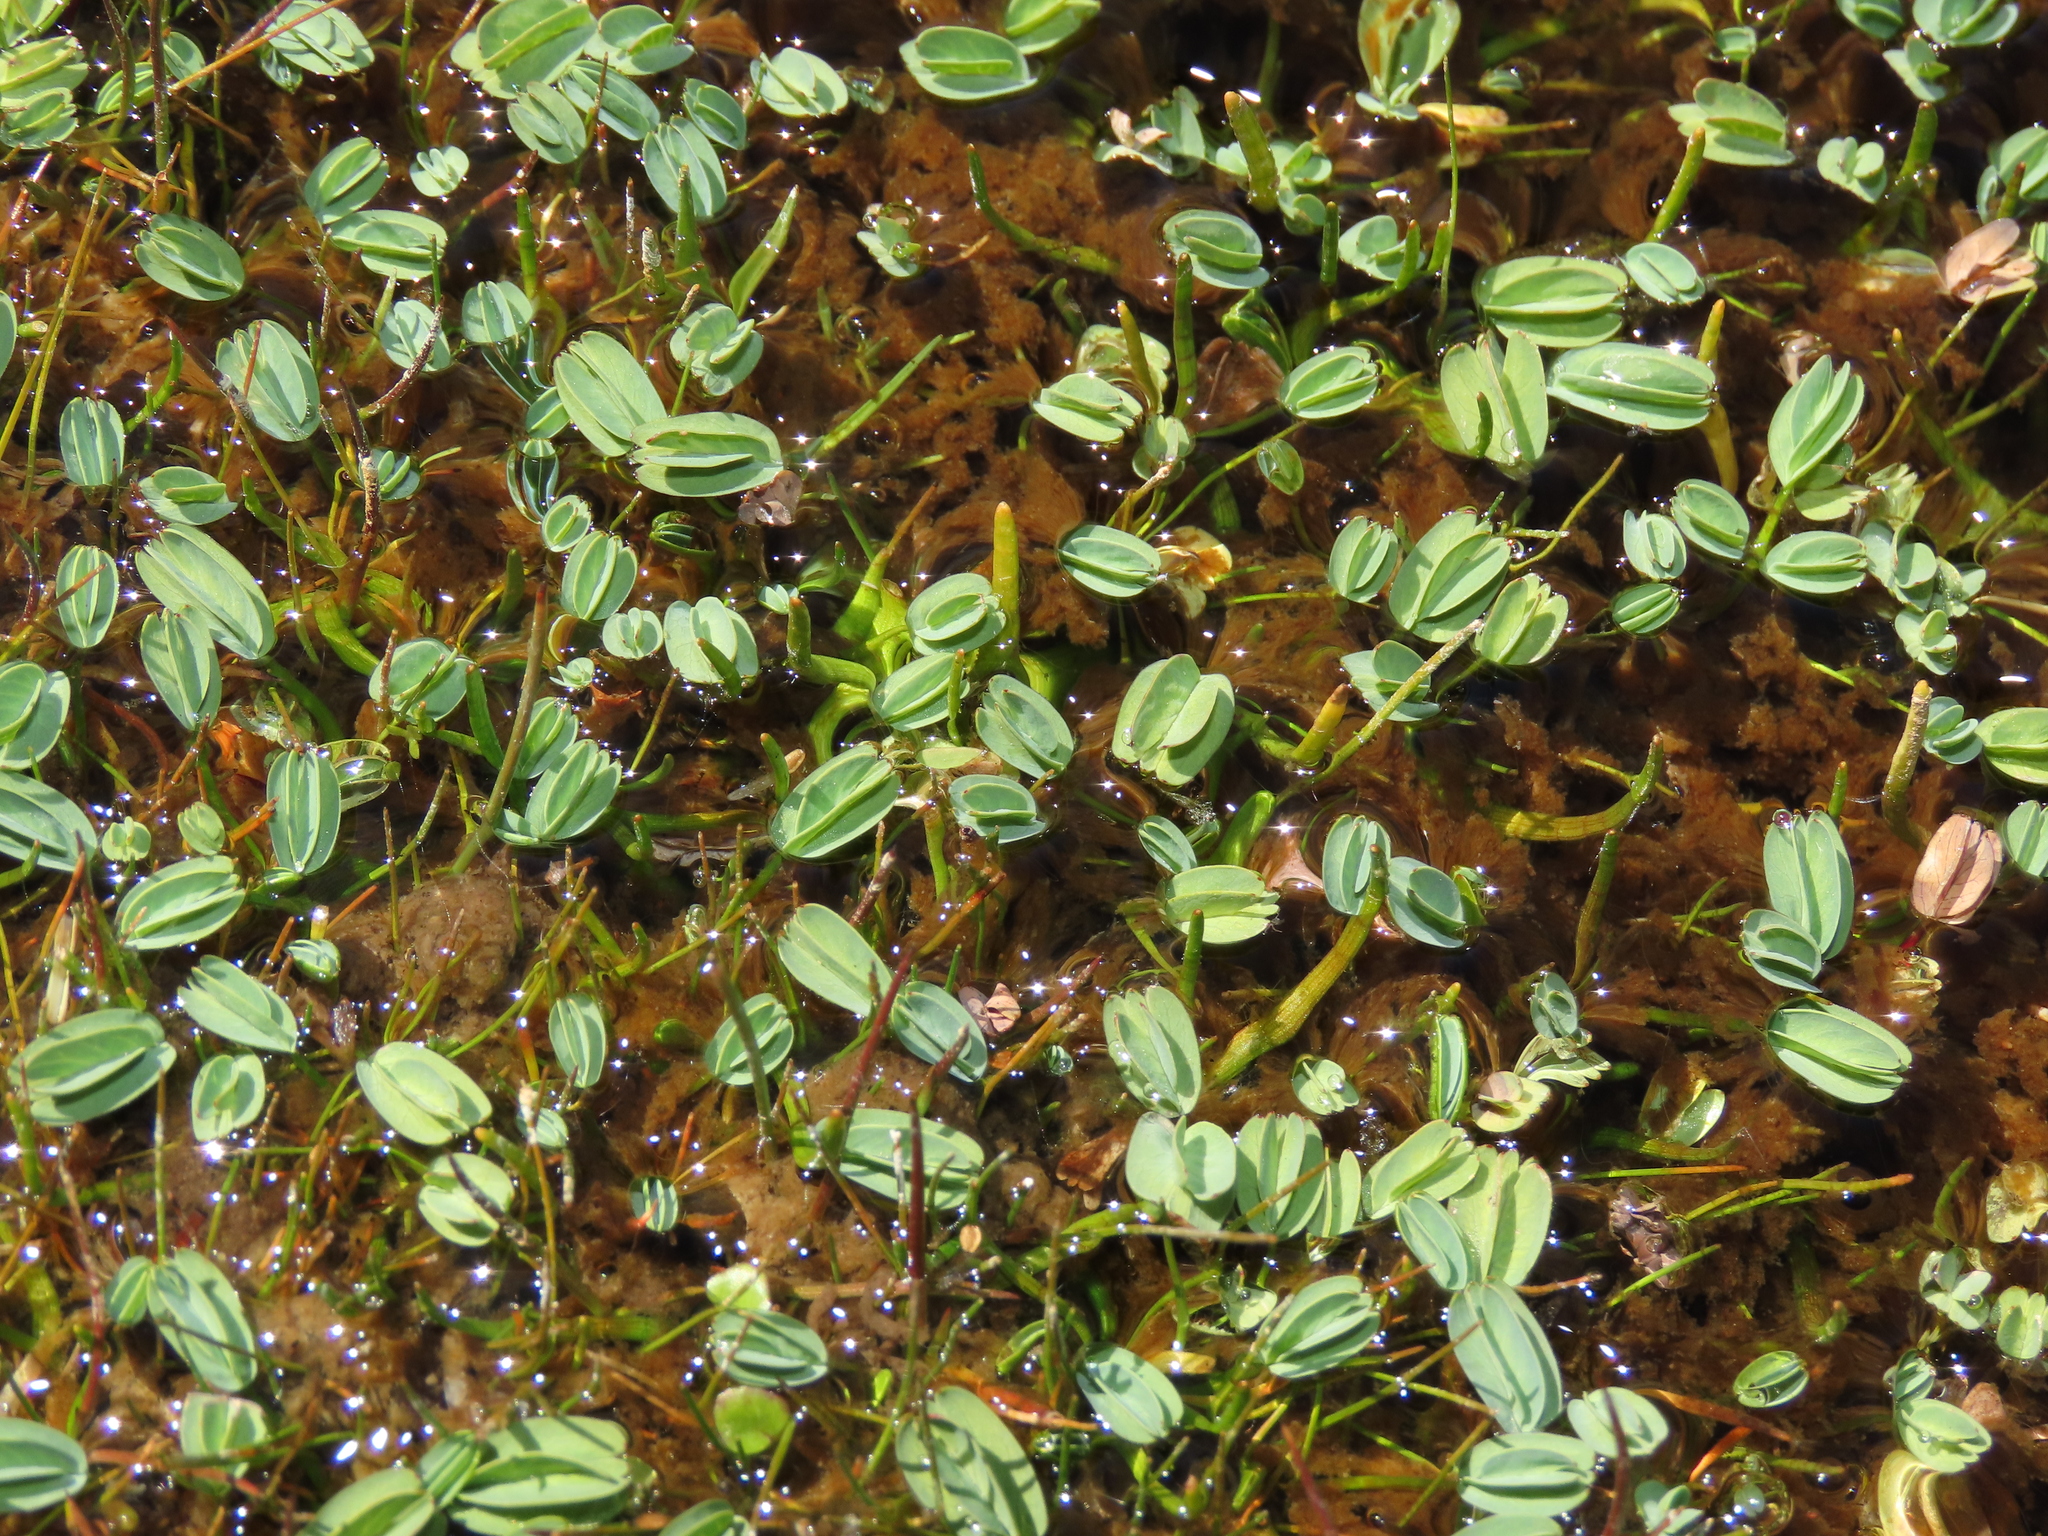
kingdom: Plantae
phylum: Tracheophyta
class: Magnoliopsida
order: Rosales
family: Rosaceae
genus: Lachemilla
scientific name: Lachemilla diplophylla
